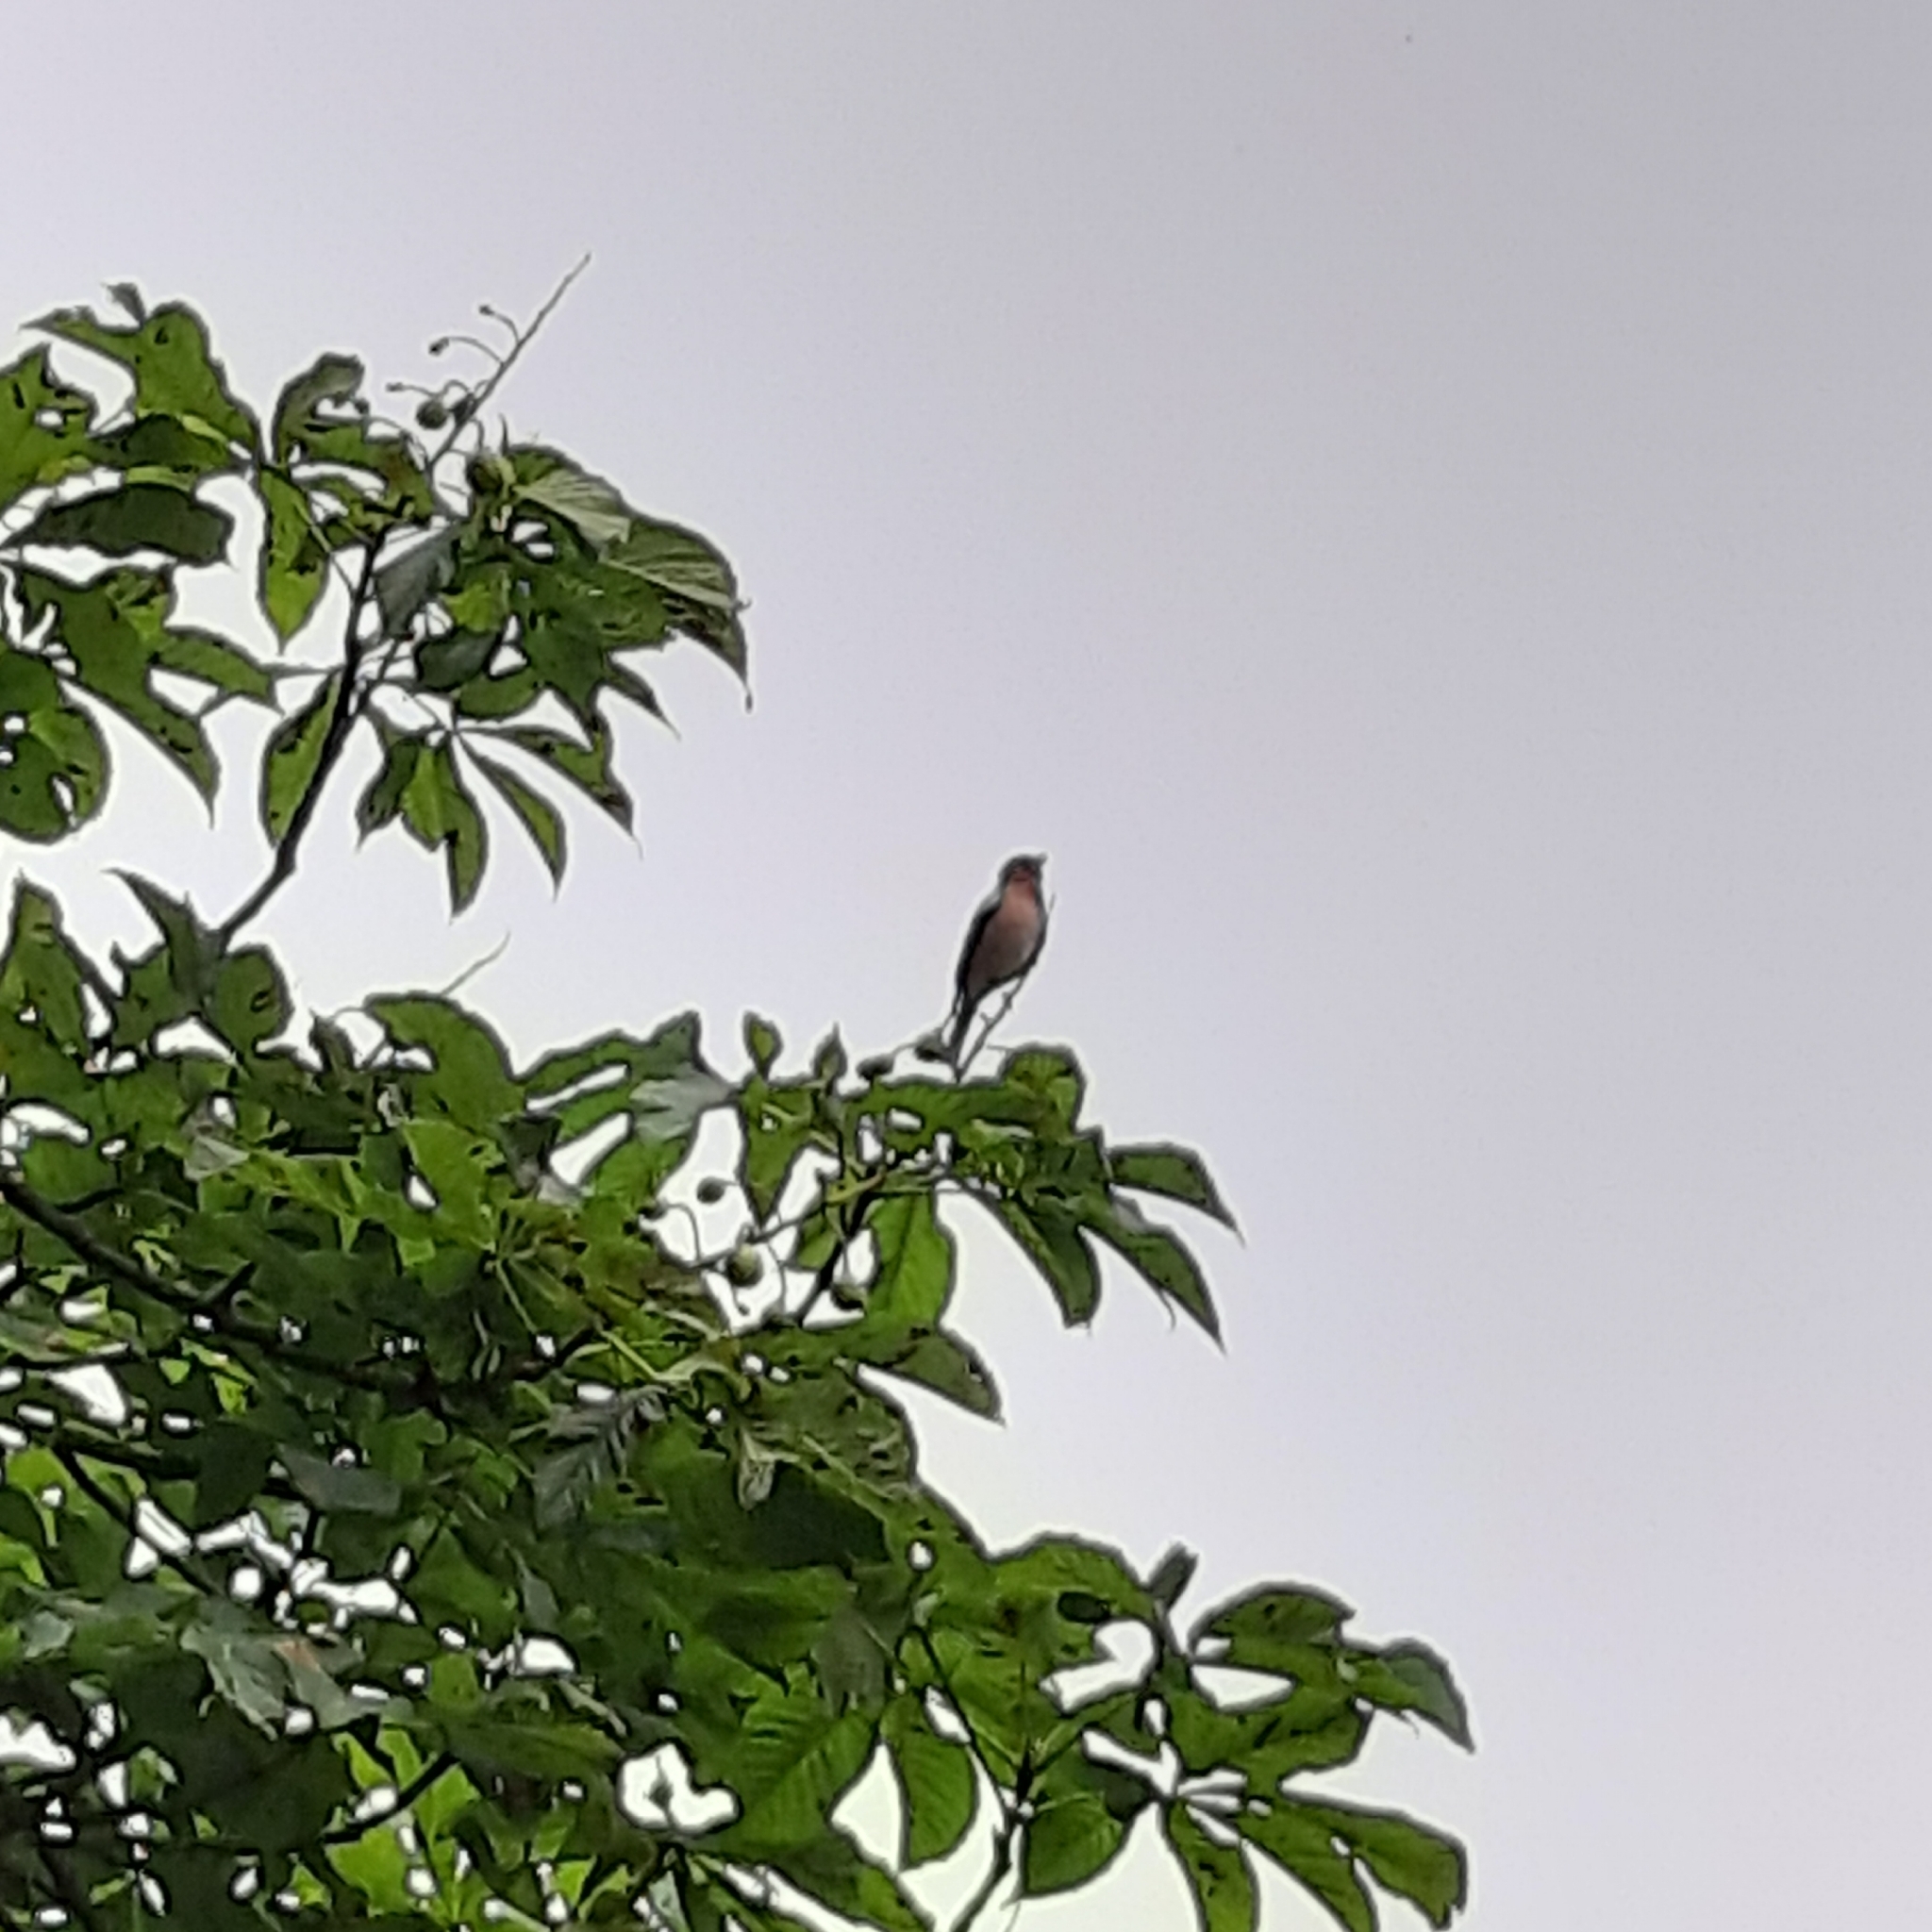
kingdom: Animalia
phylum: Chordata
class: Aves
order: Passeriformes
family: Fringillidae
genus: Fringilla
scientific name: Fringilla coelebs
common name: Common chaffinch
